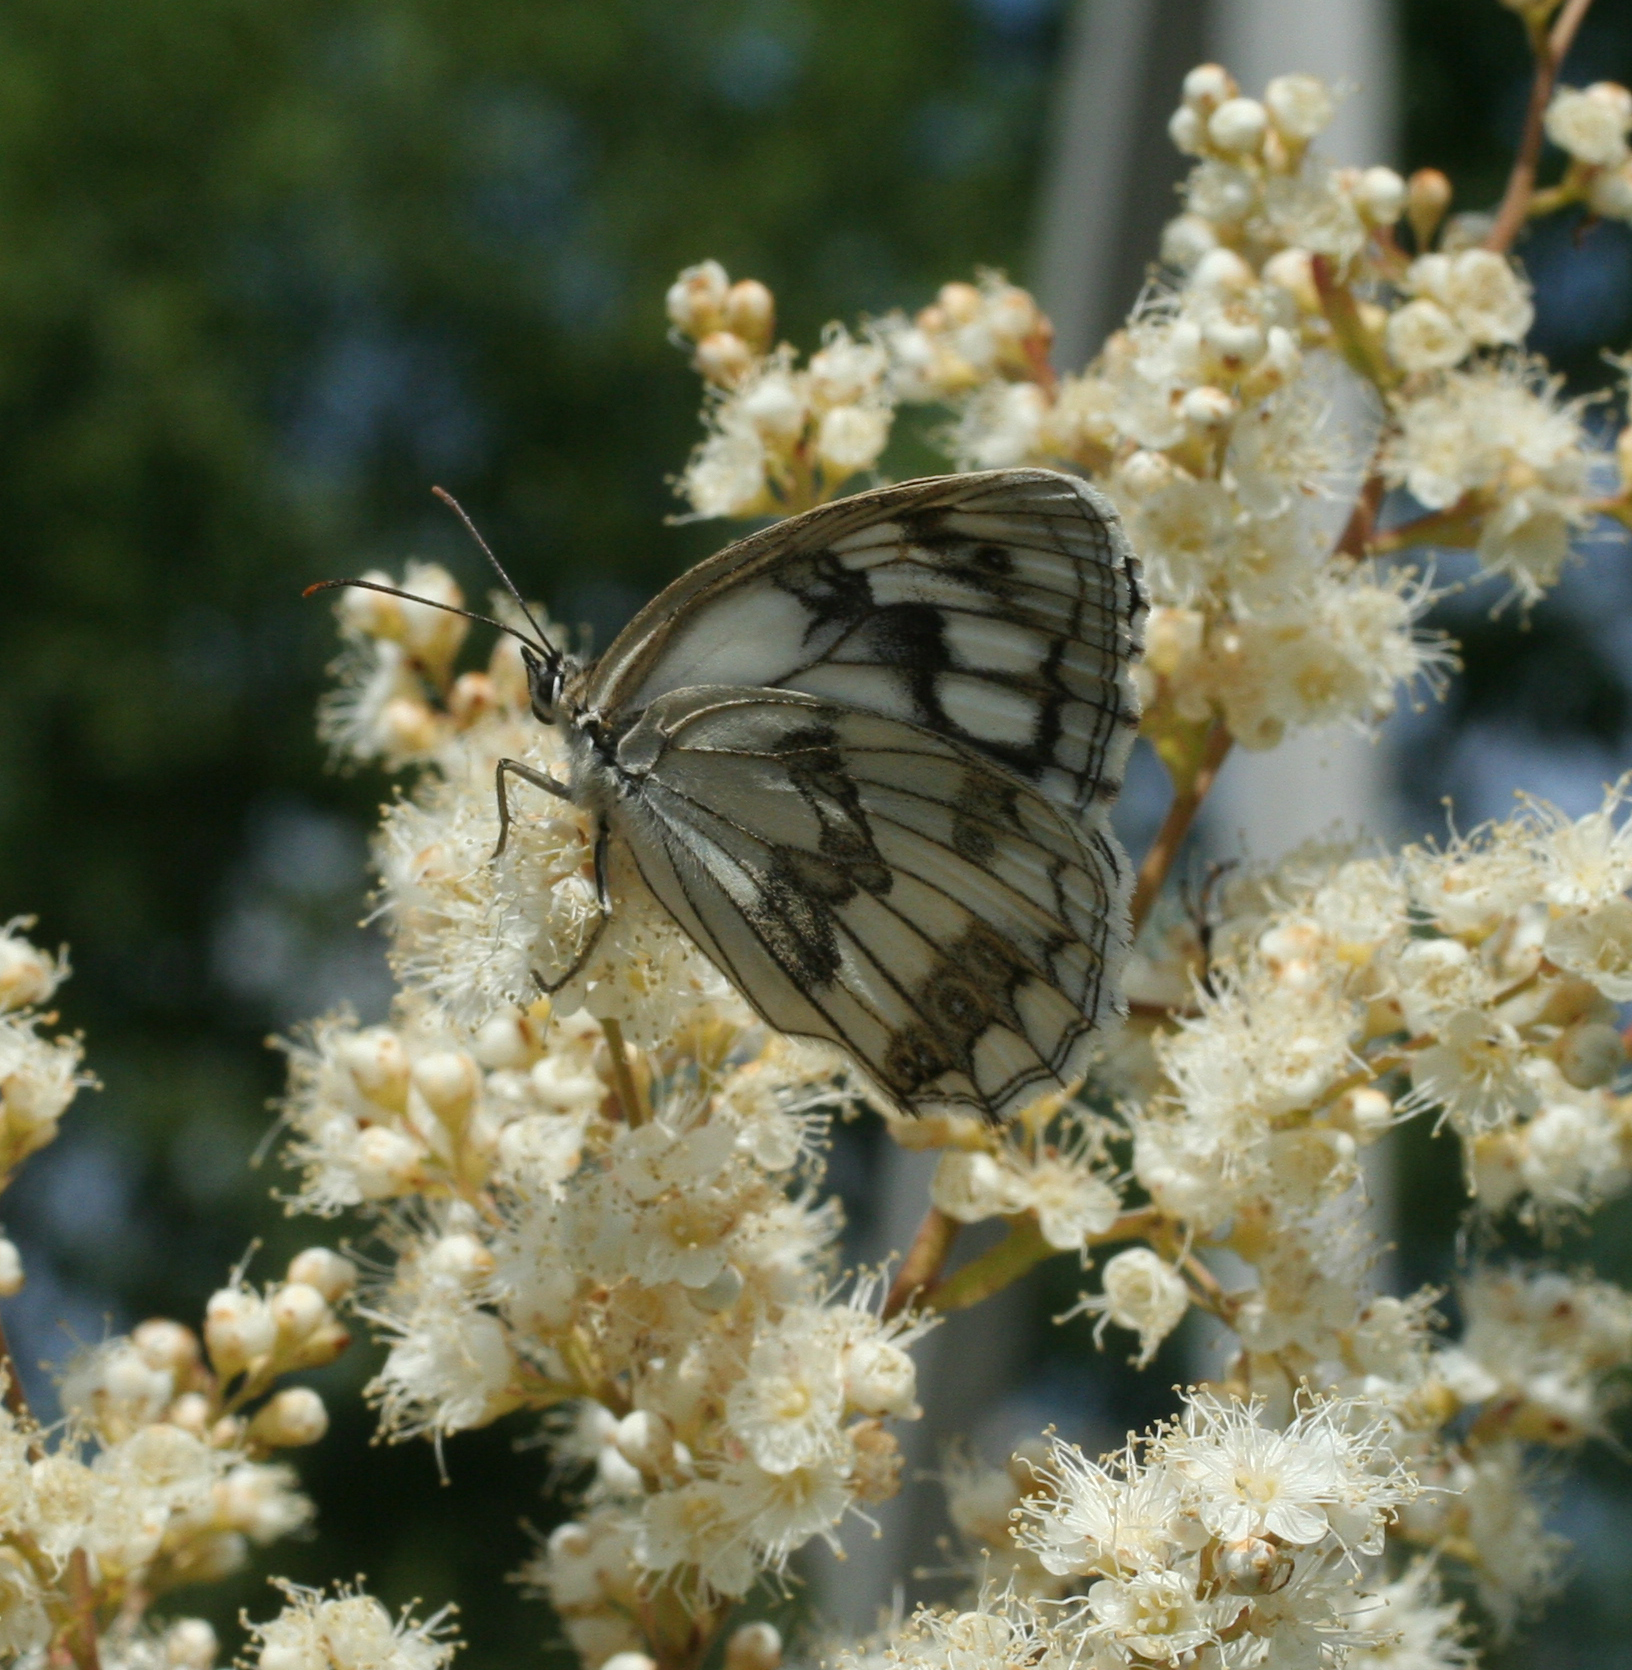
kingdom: Animalia
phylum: Arthropoda
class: Insecta
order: Lepidoptera
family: Nymphalidae
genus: Melanargia
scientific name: Melanargia halimede
